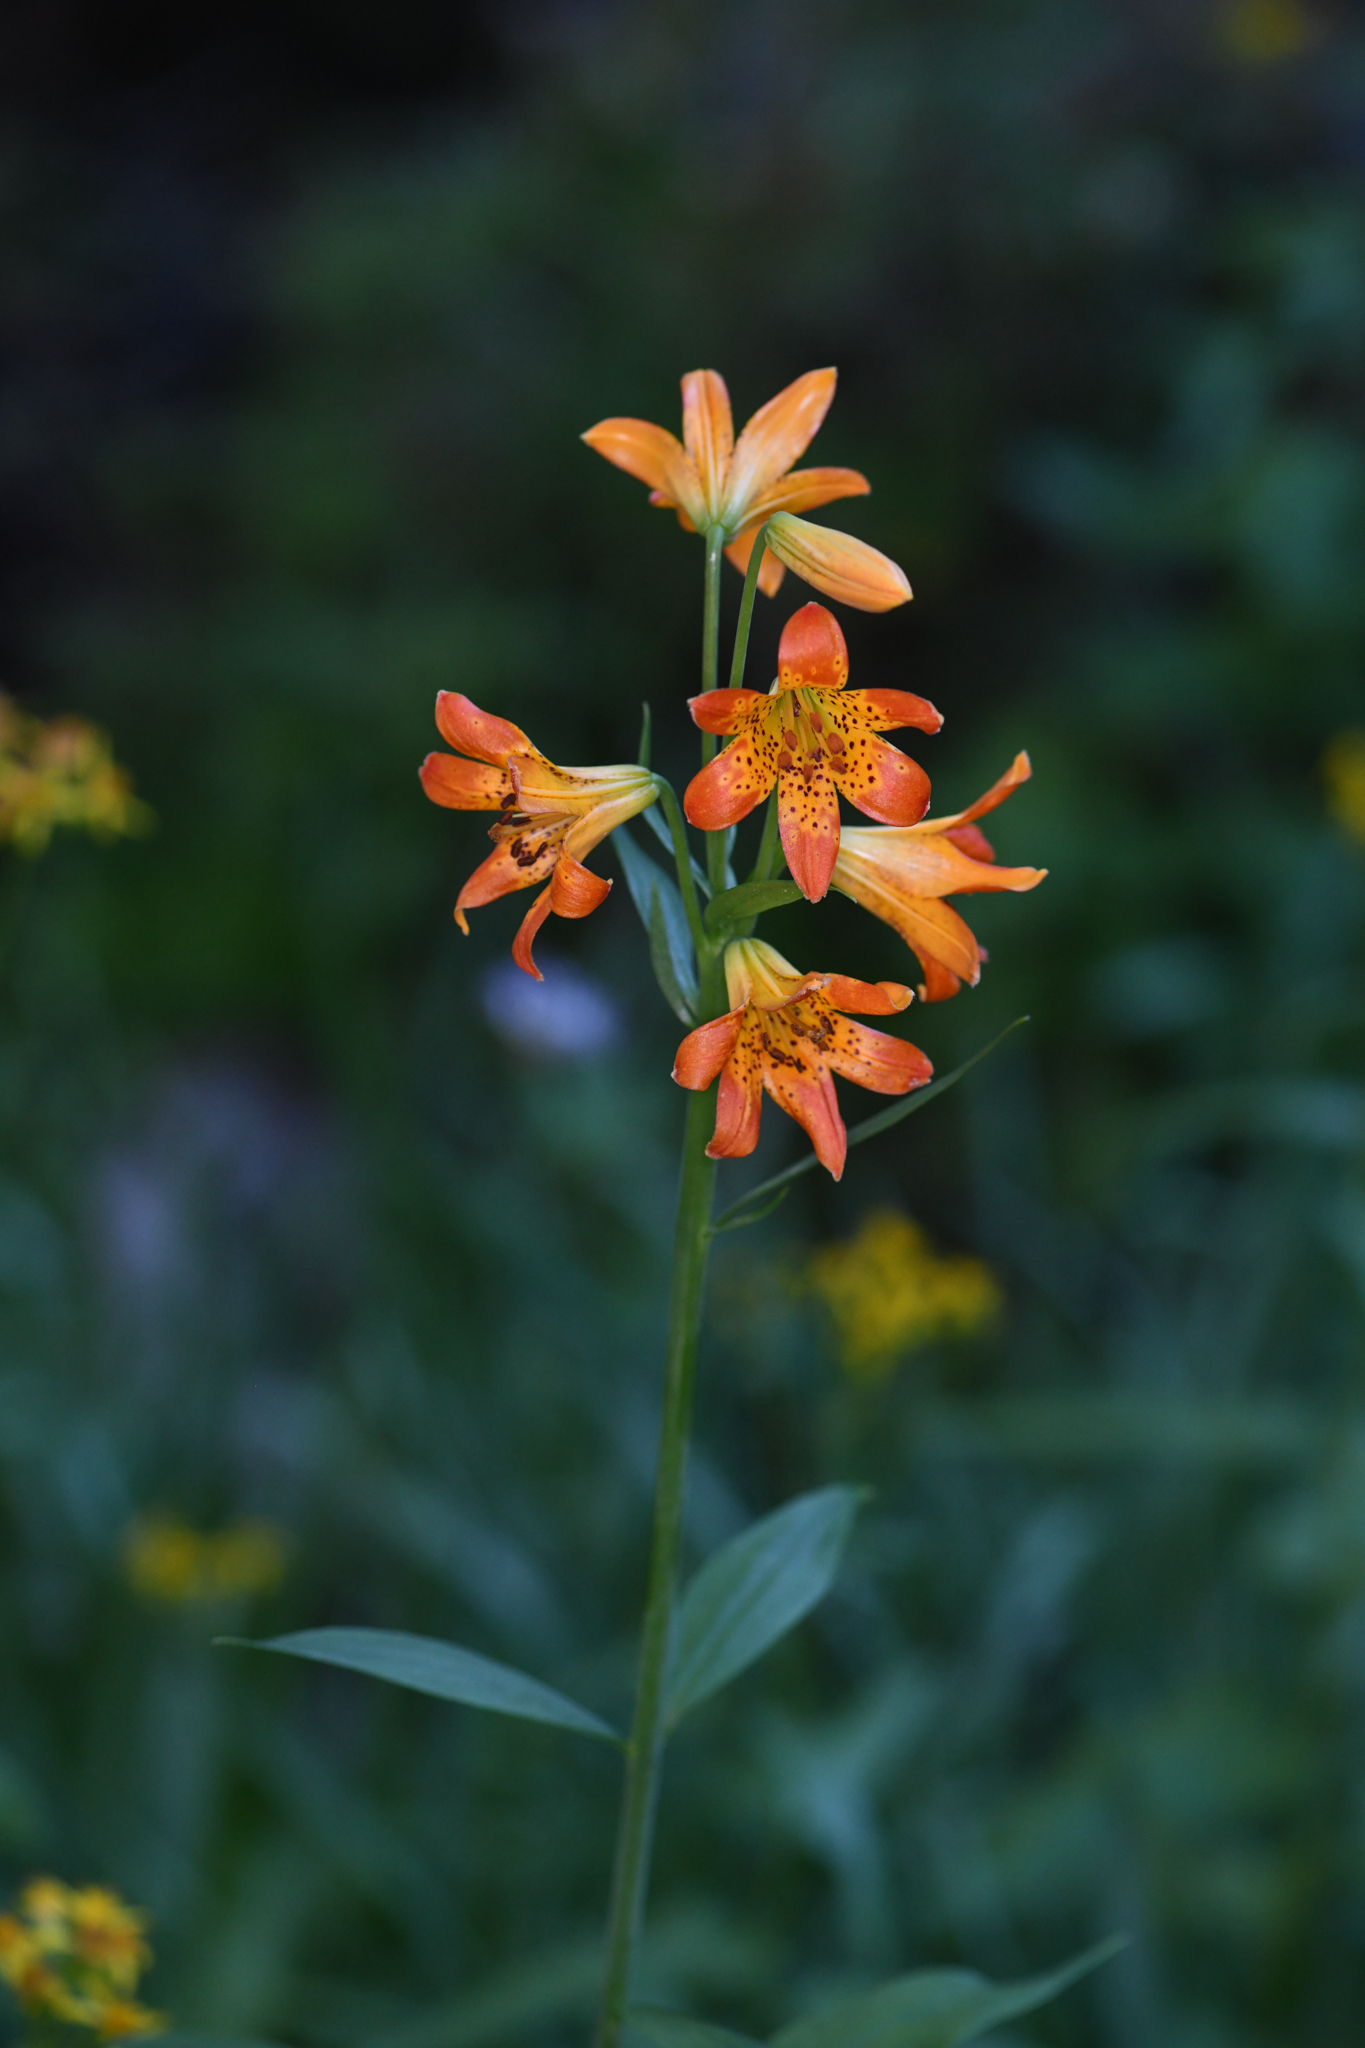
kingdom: Plantae
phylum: Tracheophyta
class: Liliopsida
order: Liliales
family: Liliaceae
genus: Lilium
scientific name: Lilium parvum
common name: Alpine lily
